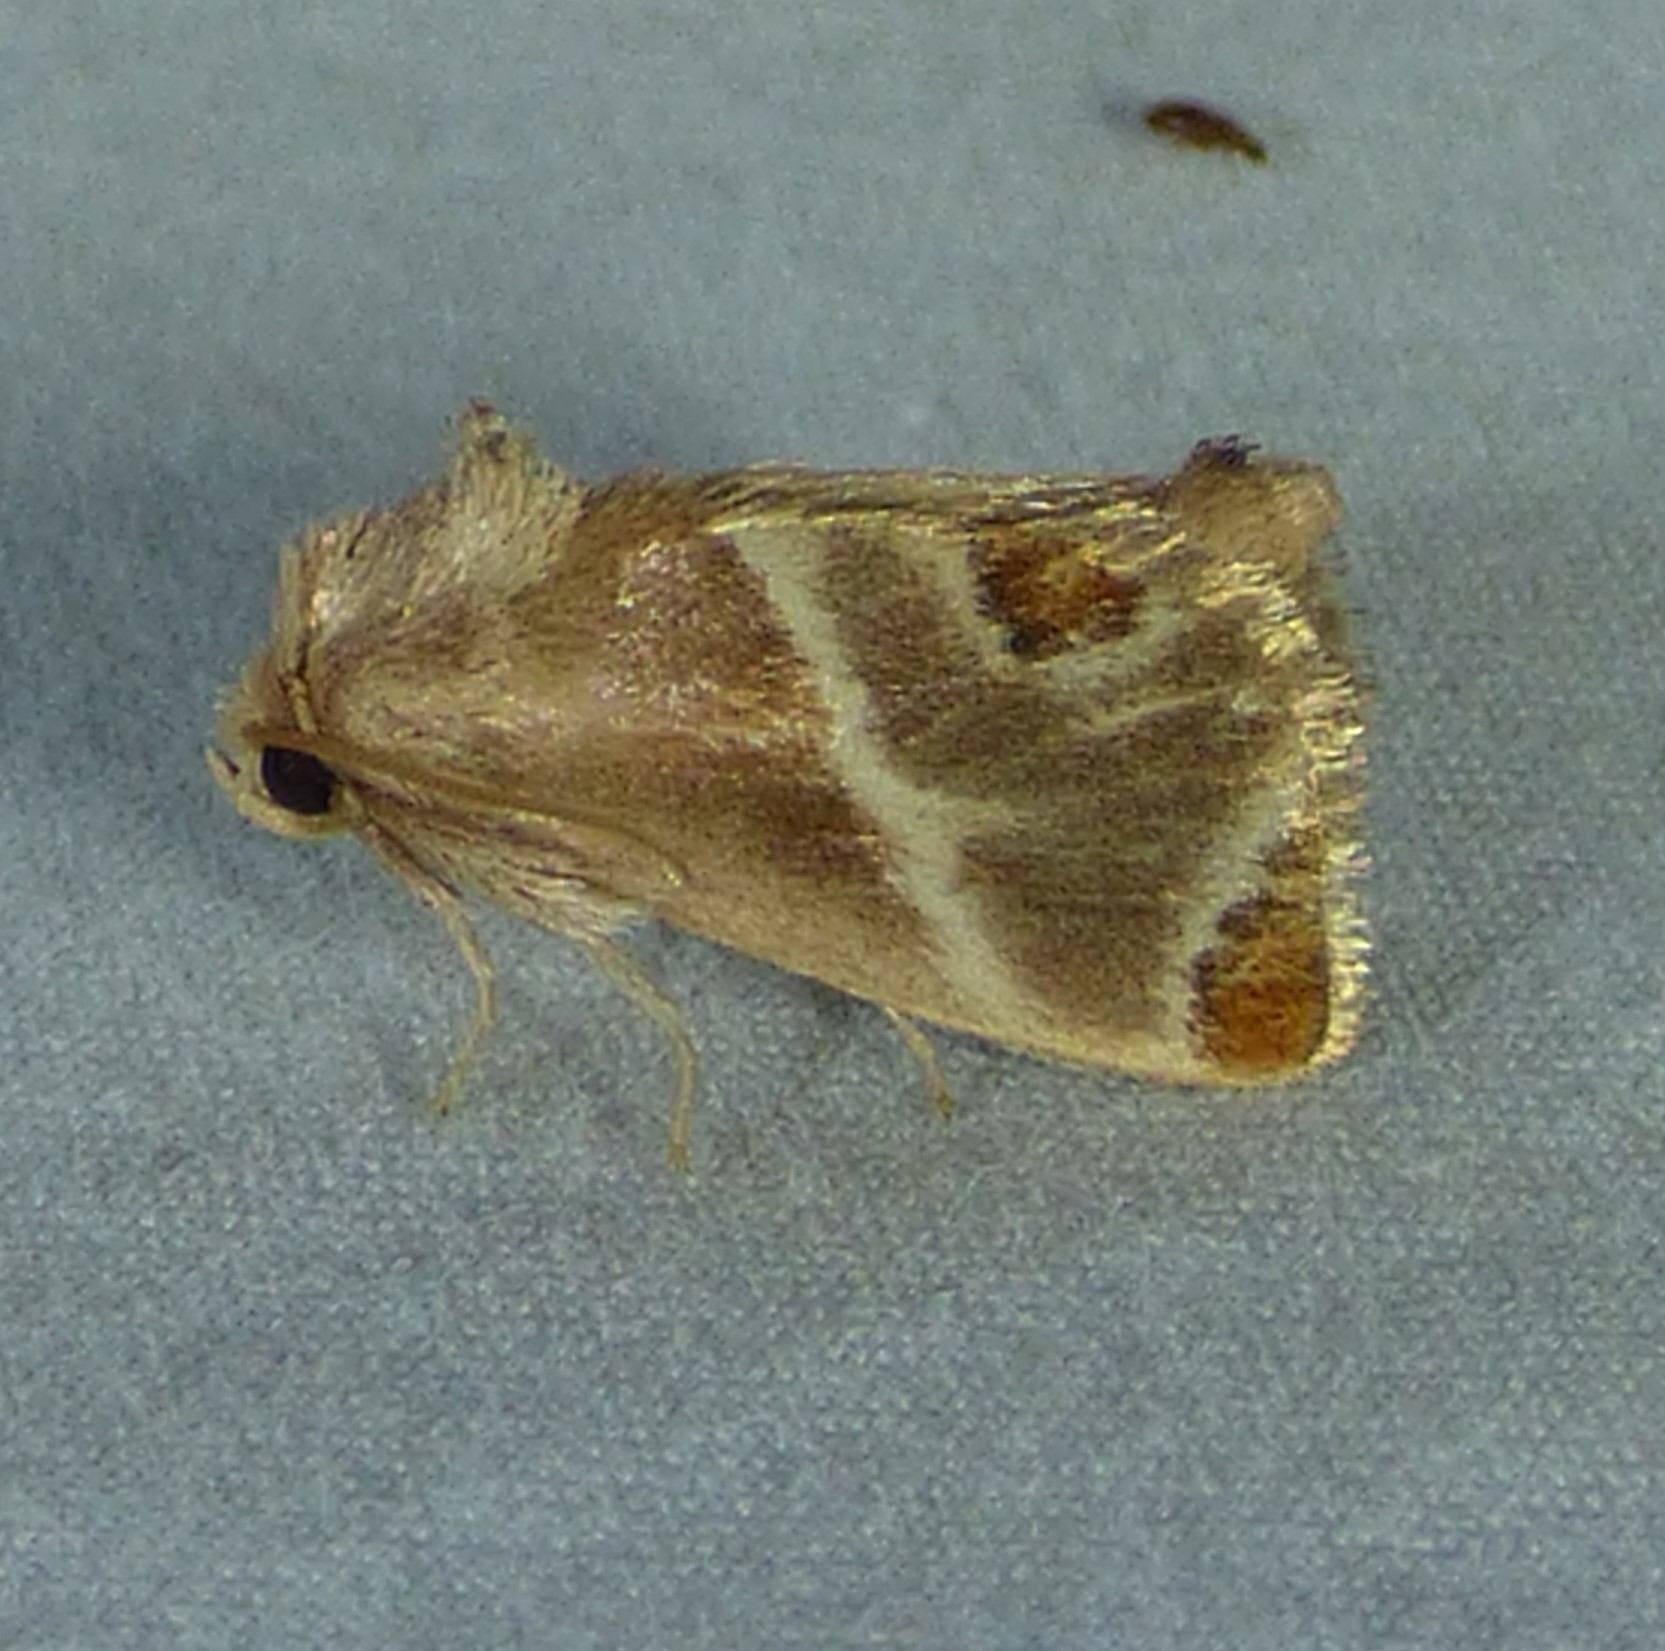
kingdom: Animalia
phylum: Arthropoda
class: Insecta
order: Lepidoptera
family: Limacodidae
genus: Apoda
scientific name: Apoda biguttata
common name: Shagreened slug moth
